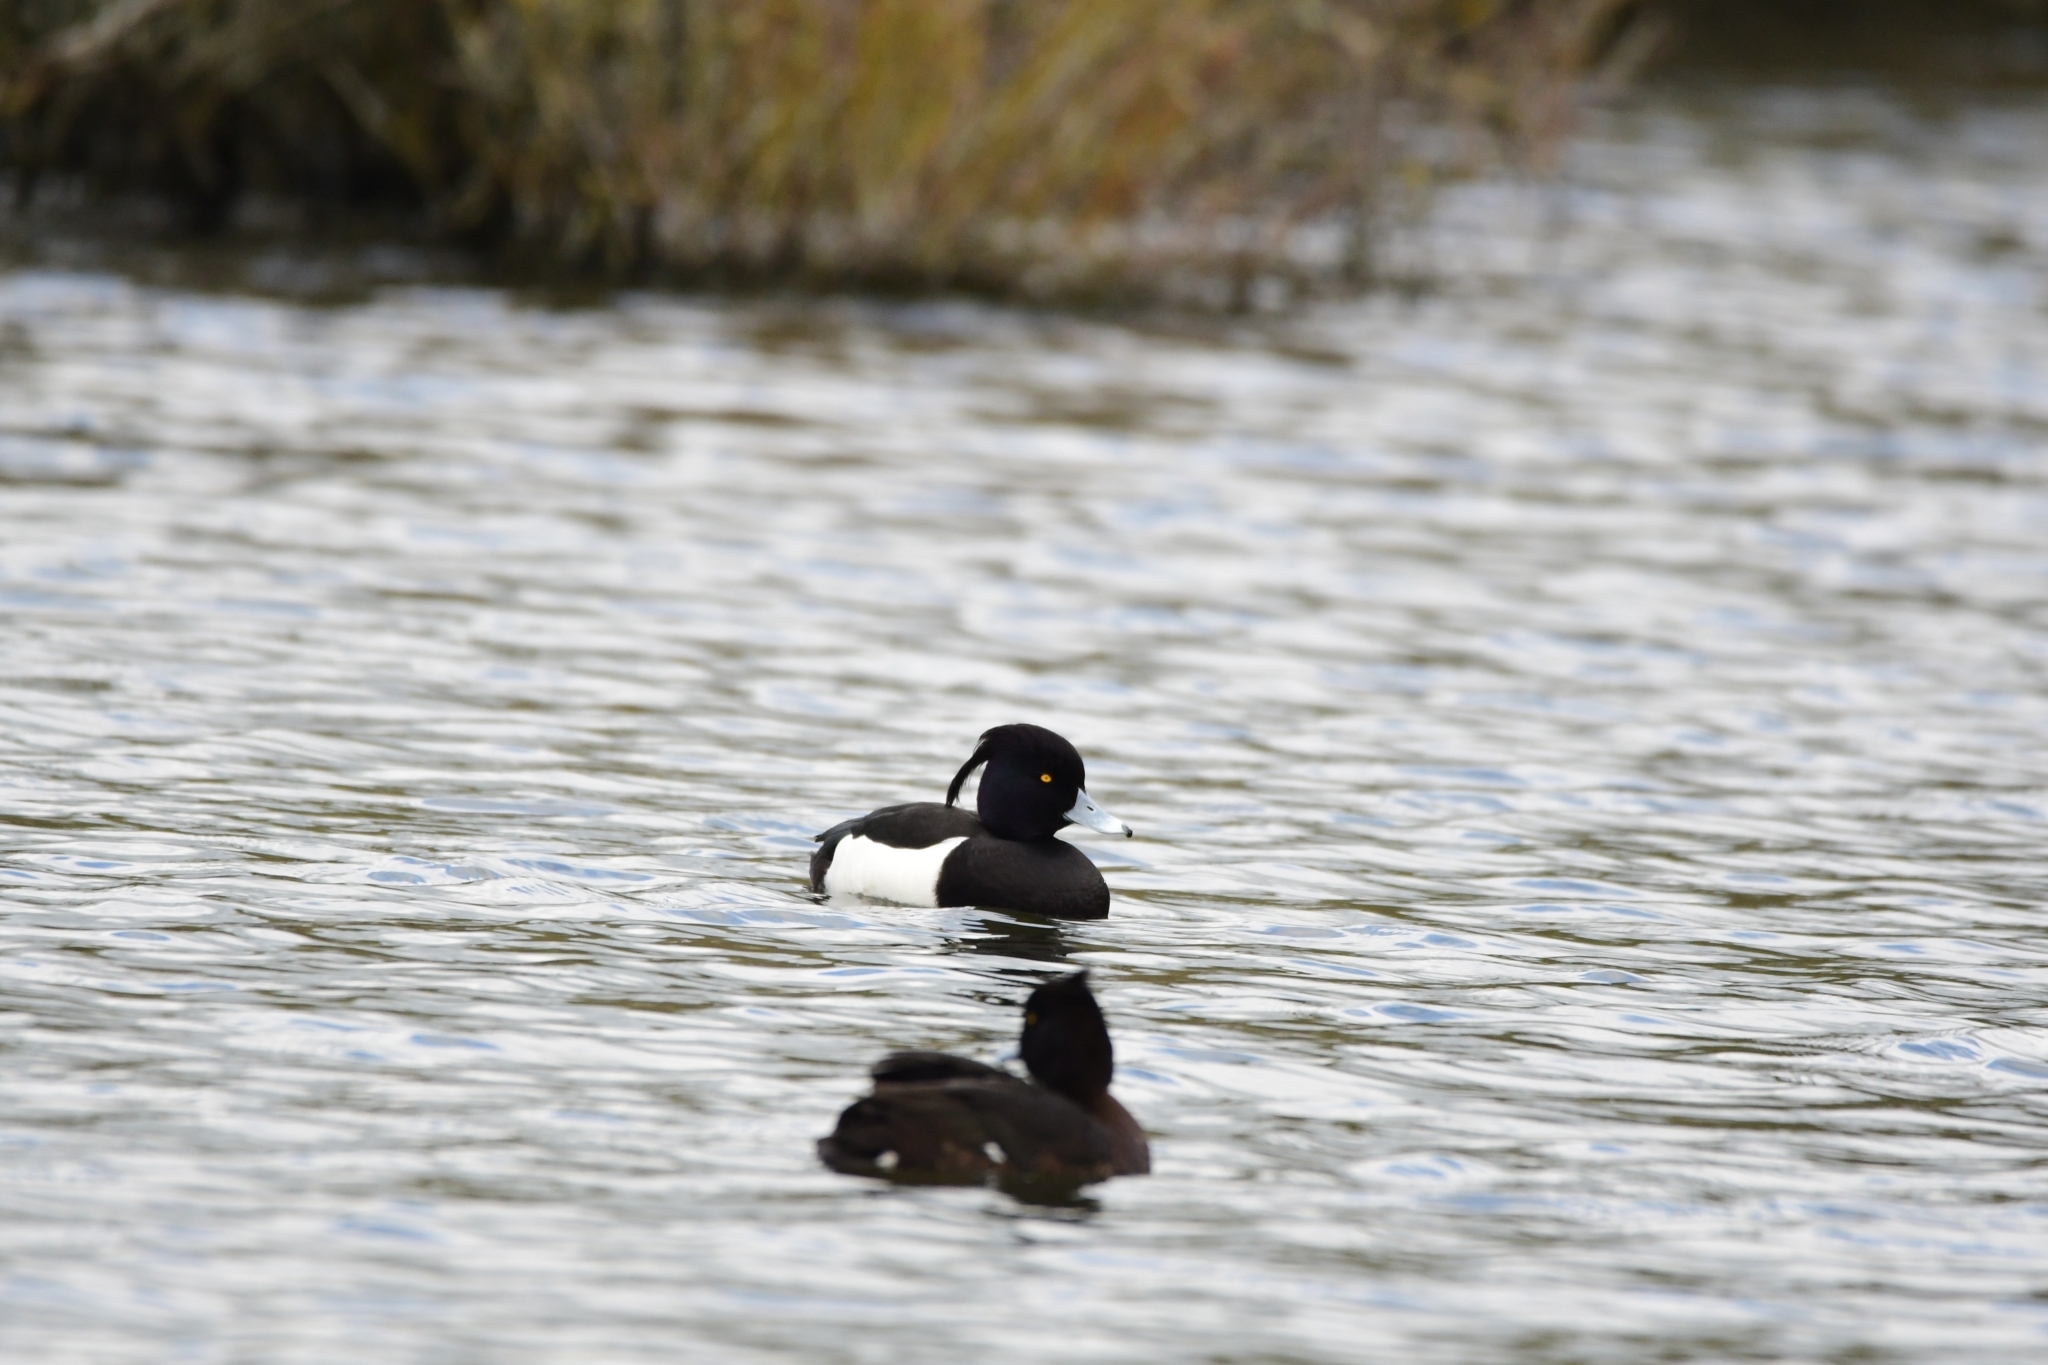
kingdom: Animalia
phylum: Chordata
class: Aves
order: Anseriformes
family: Anatidae
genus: Aythya
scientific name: Aythya fuligula
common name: Tufted duck
